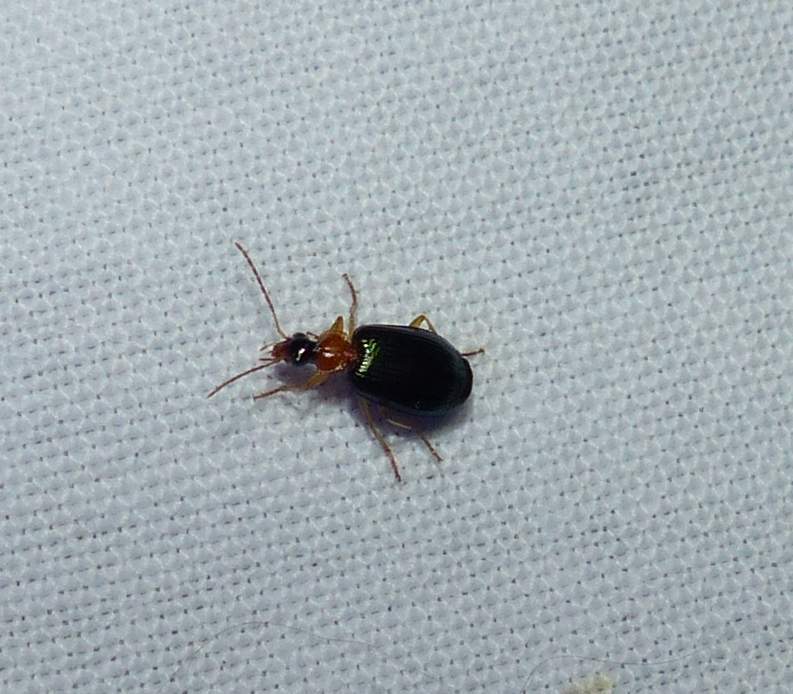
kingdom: Animalia
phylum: Arthropoda
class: Insecta
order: Coleoptera
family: Carabidae
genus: Lebia
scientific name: Lebia tricolor
